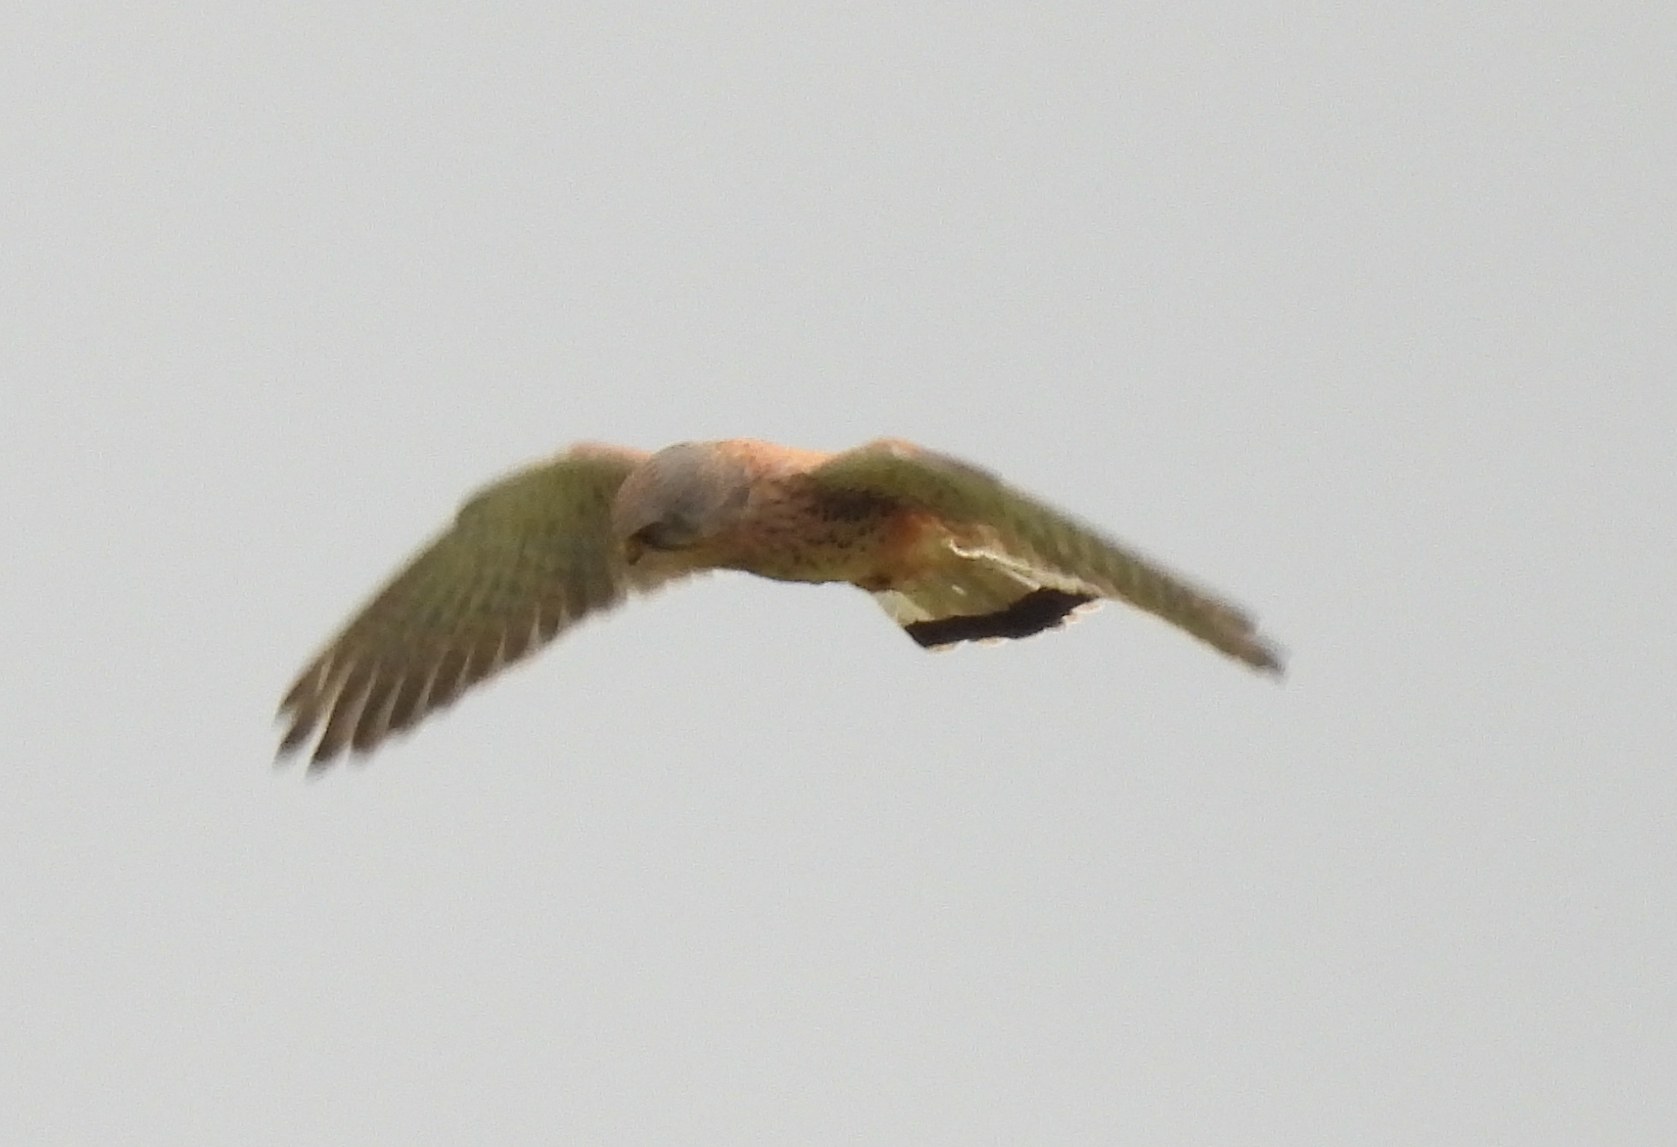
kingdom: Animalia
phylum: Chordata
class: Aves
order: Falconiformes
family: Falconidae
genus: Falco
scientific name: Falco tinnunculus
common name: Common kestrel
